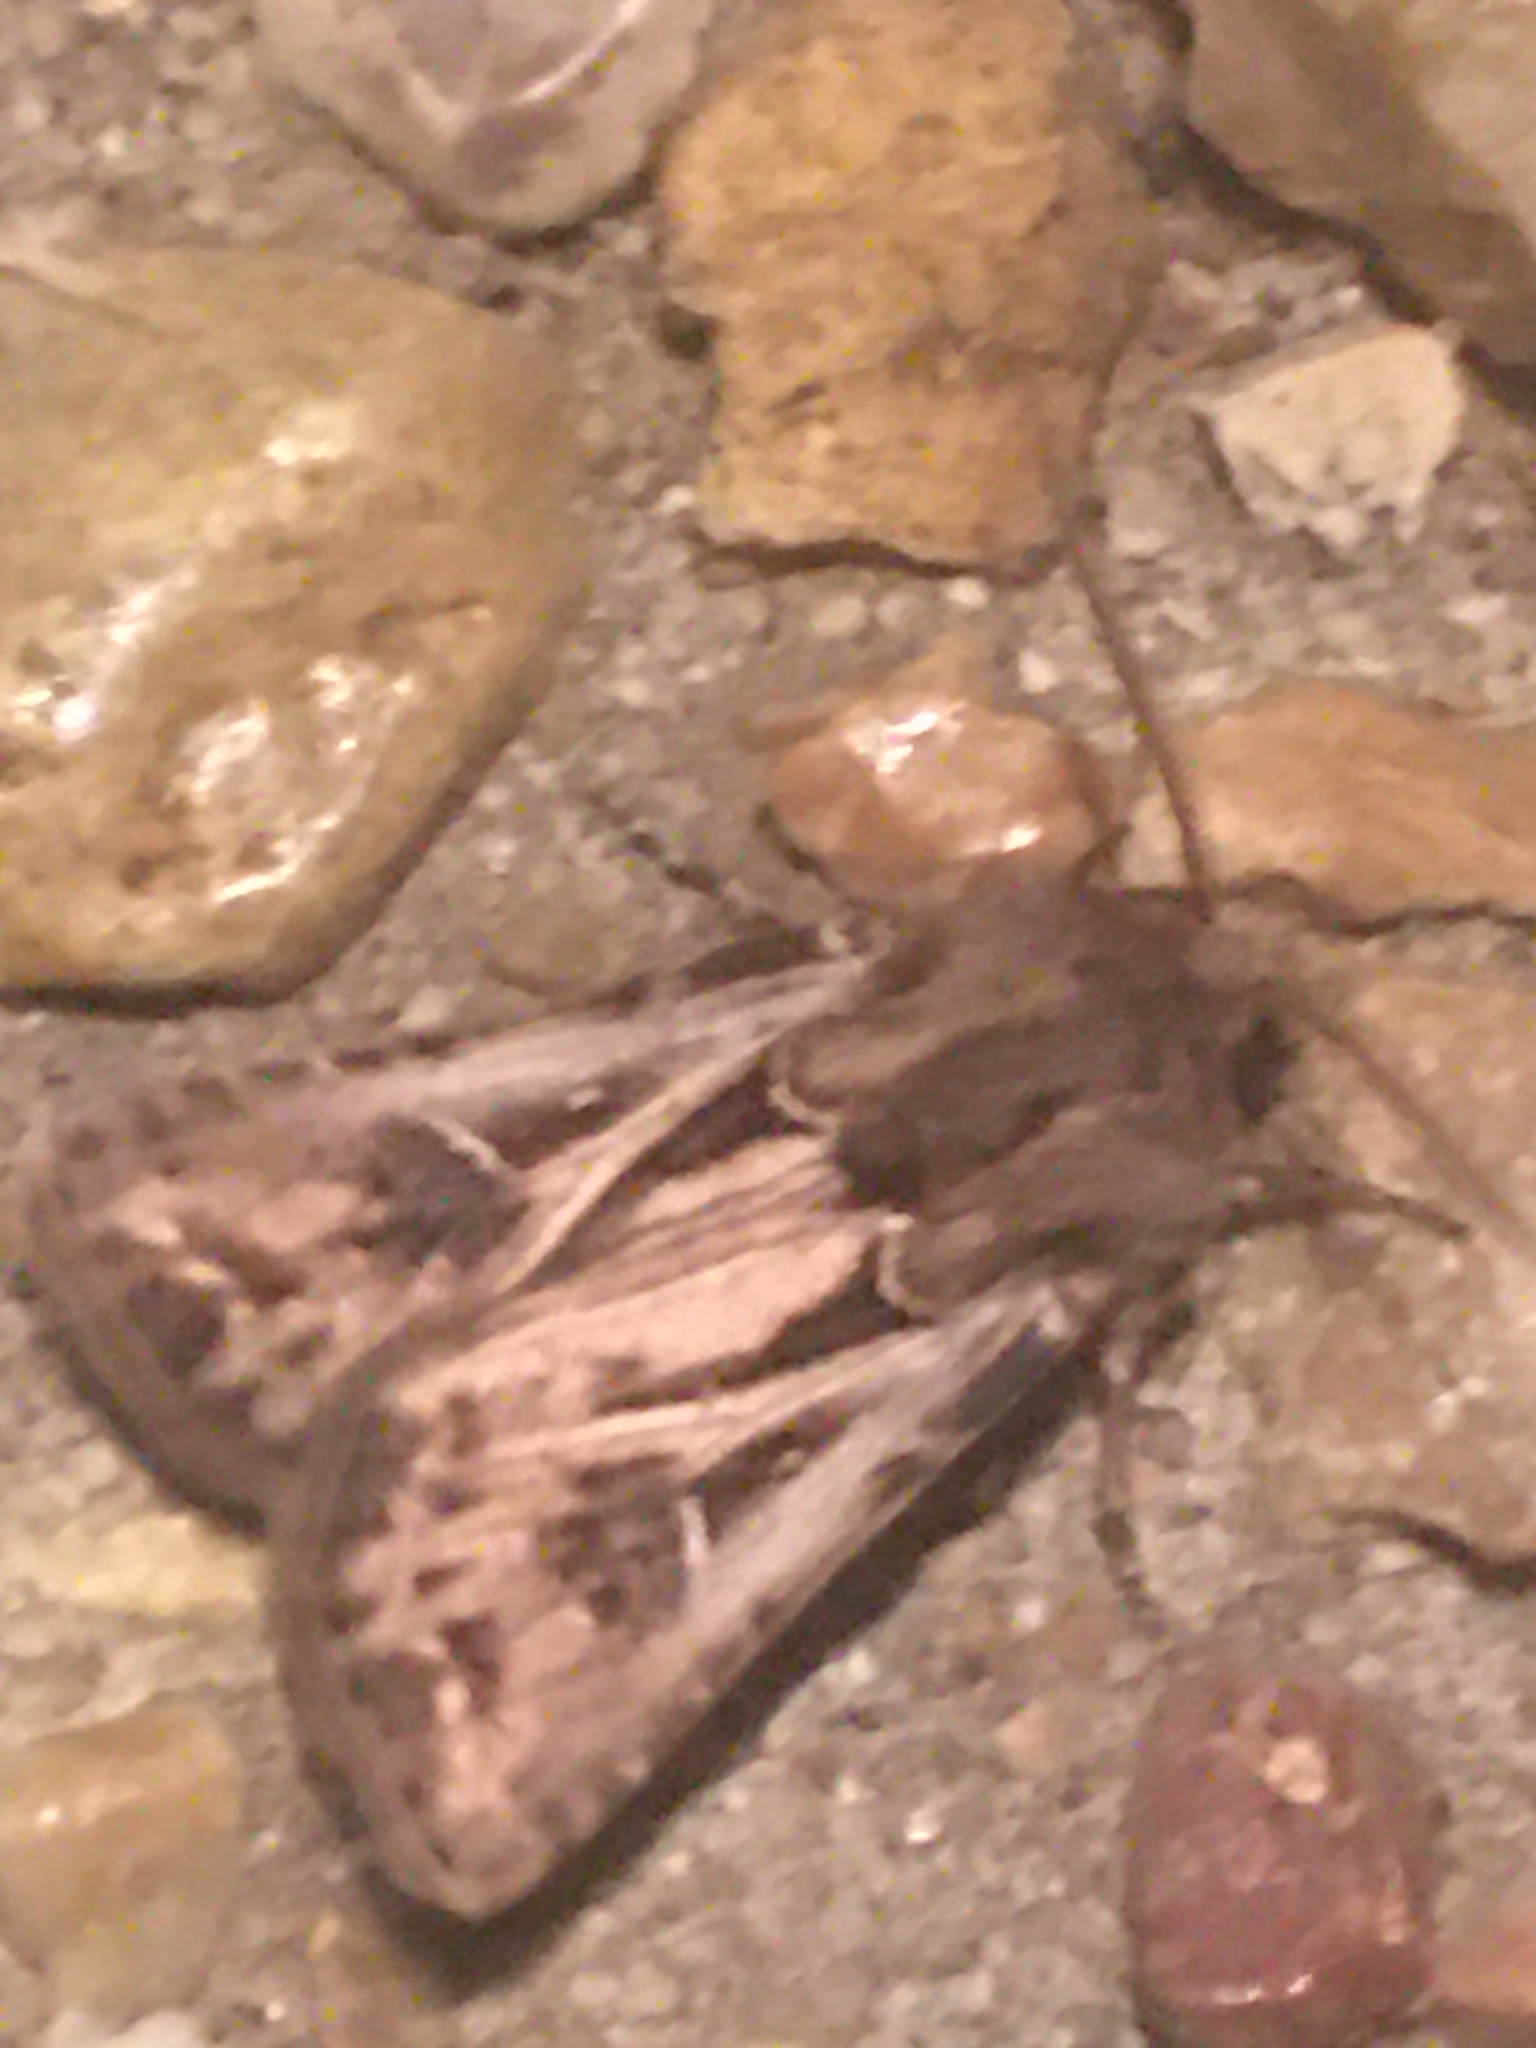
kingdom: Animalia
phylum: Arthropoda
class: Insecta
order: Lepidoptera
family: Noctuidae
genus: Agrotis
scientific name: Agrotis gladiaria
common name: Claybacked cutworm
